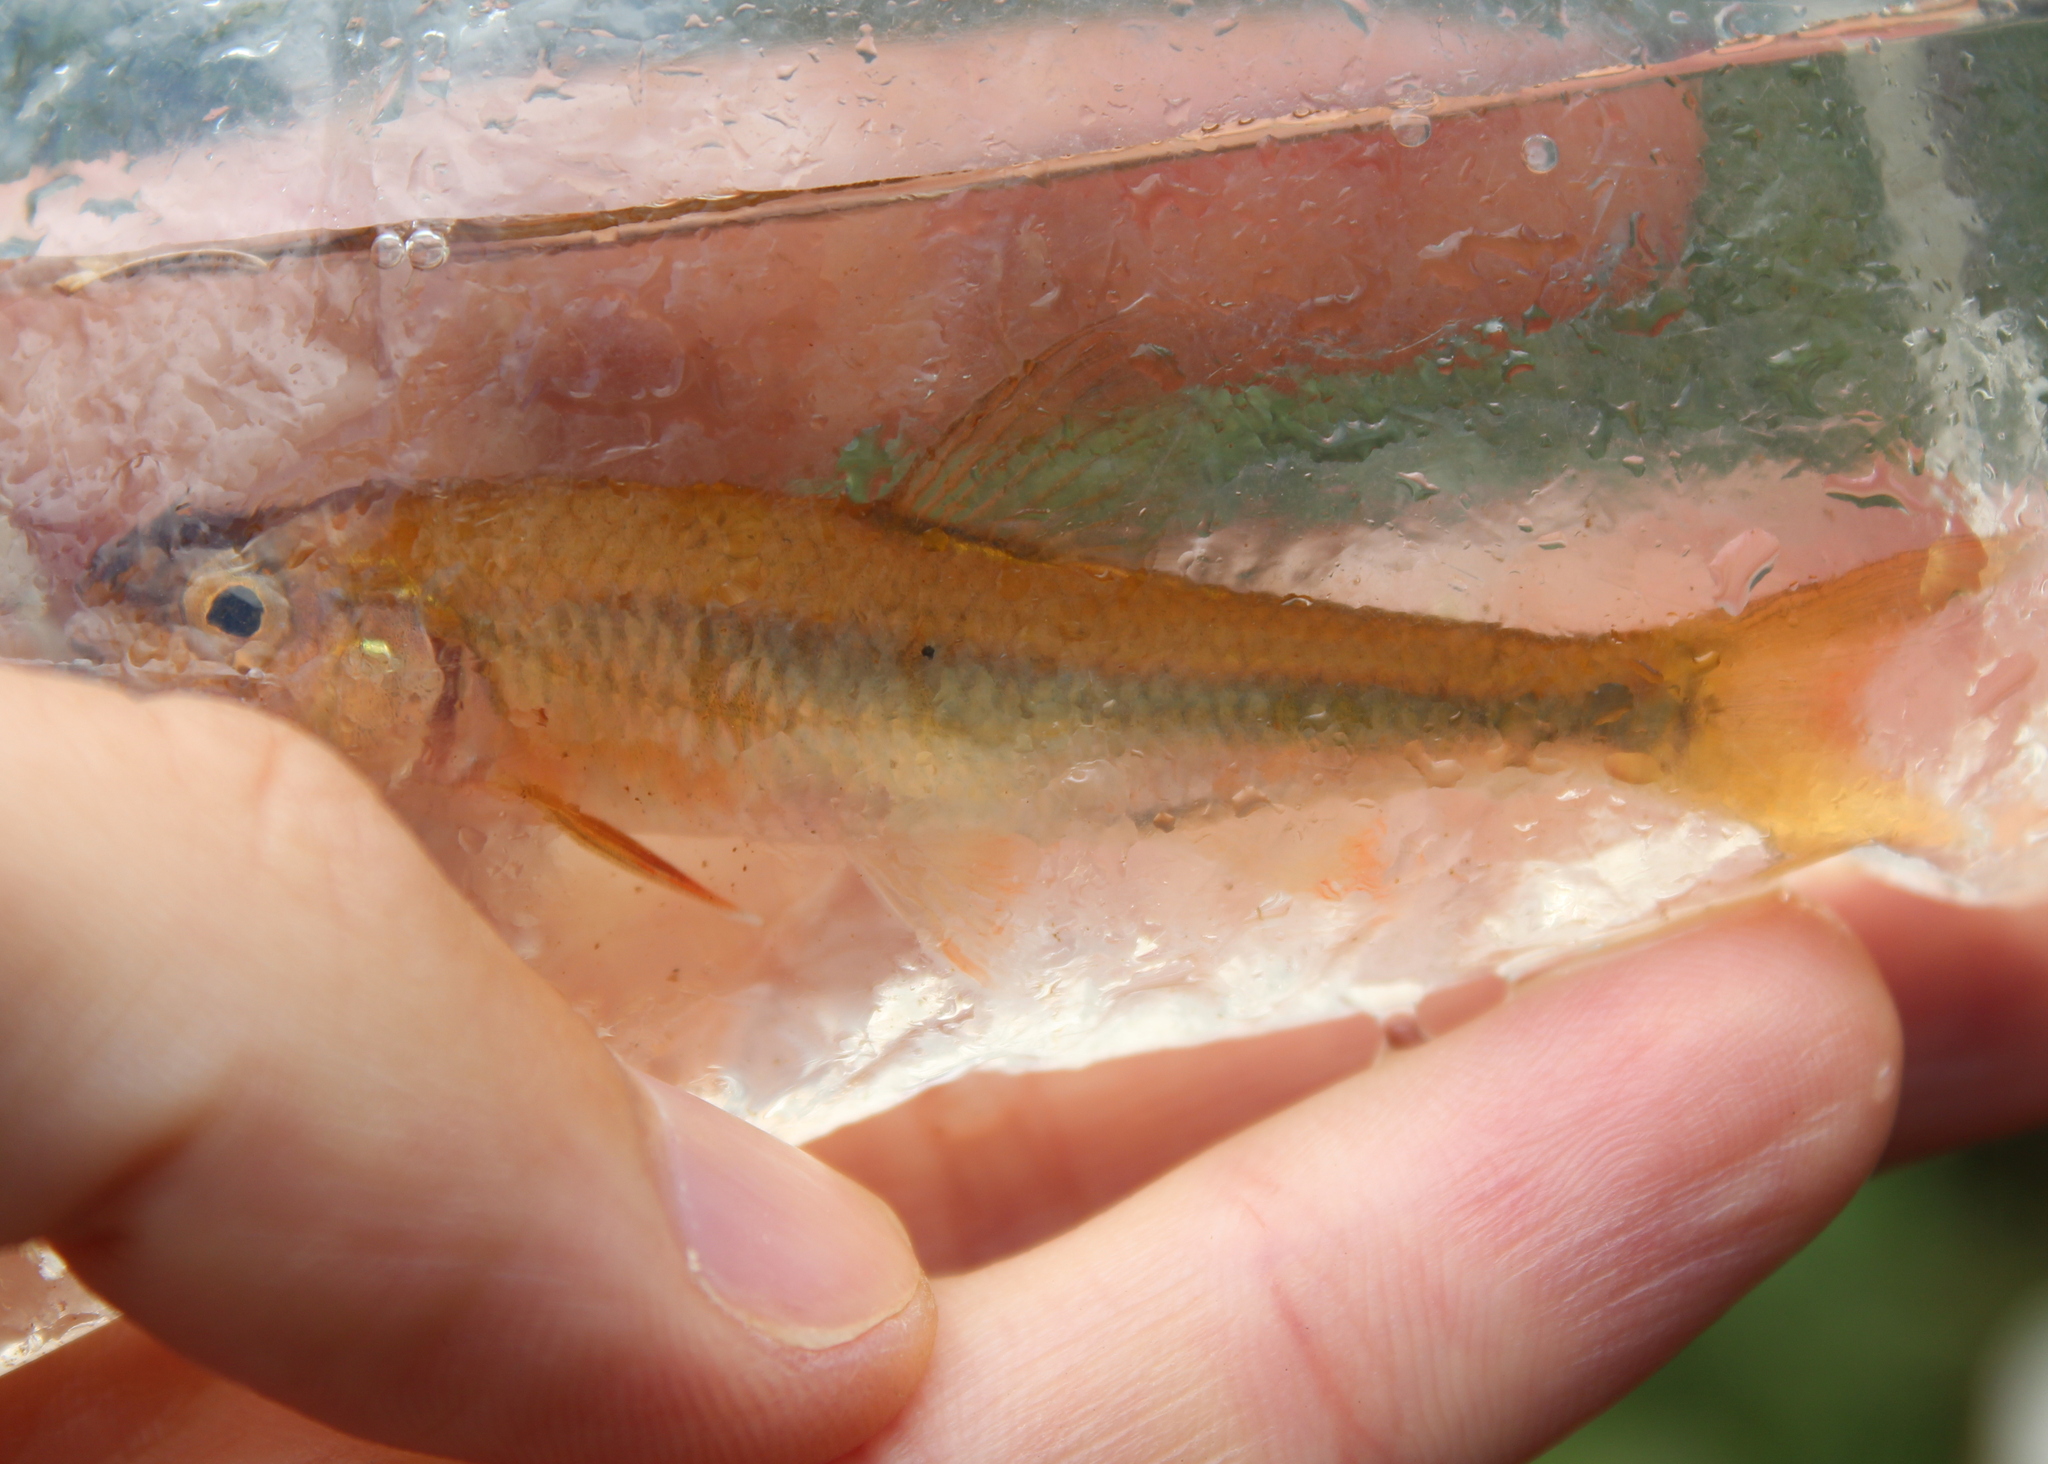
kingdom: Animalia
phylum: Chordata
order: Cypriniformes
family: Cyprinidae
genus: Luxilus
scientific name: Luxilus cornutus
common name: Common shiner
